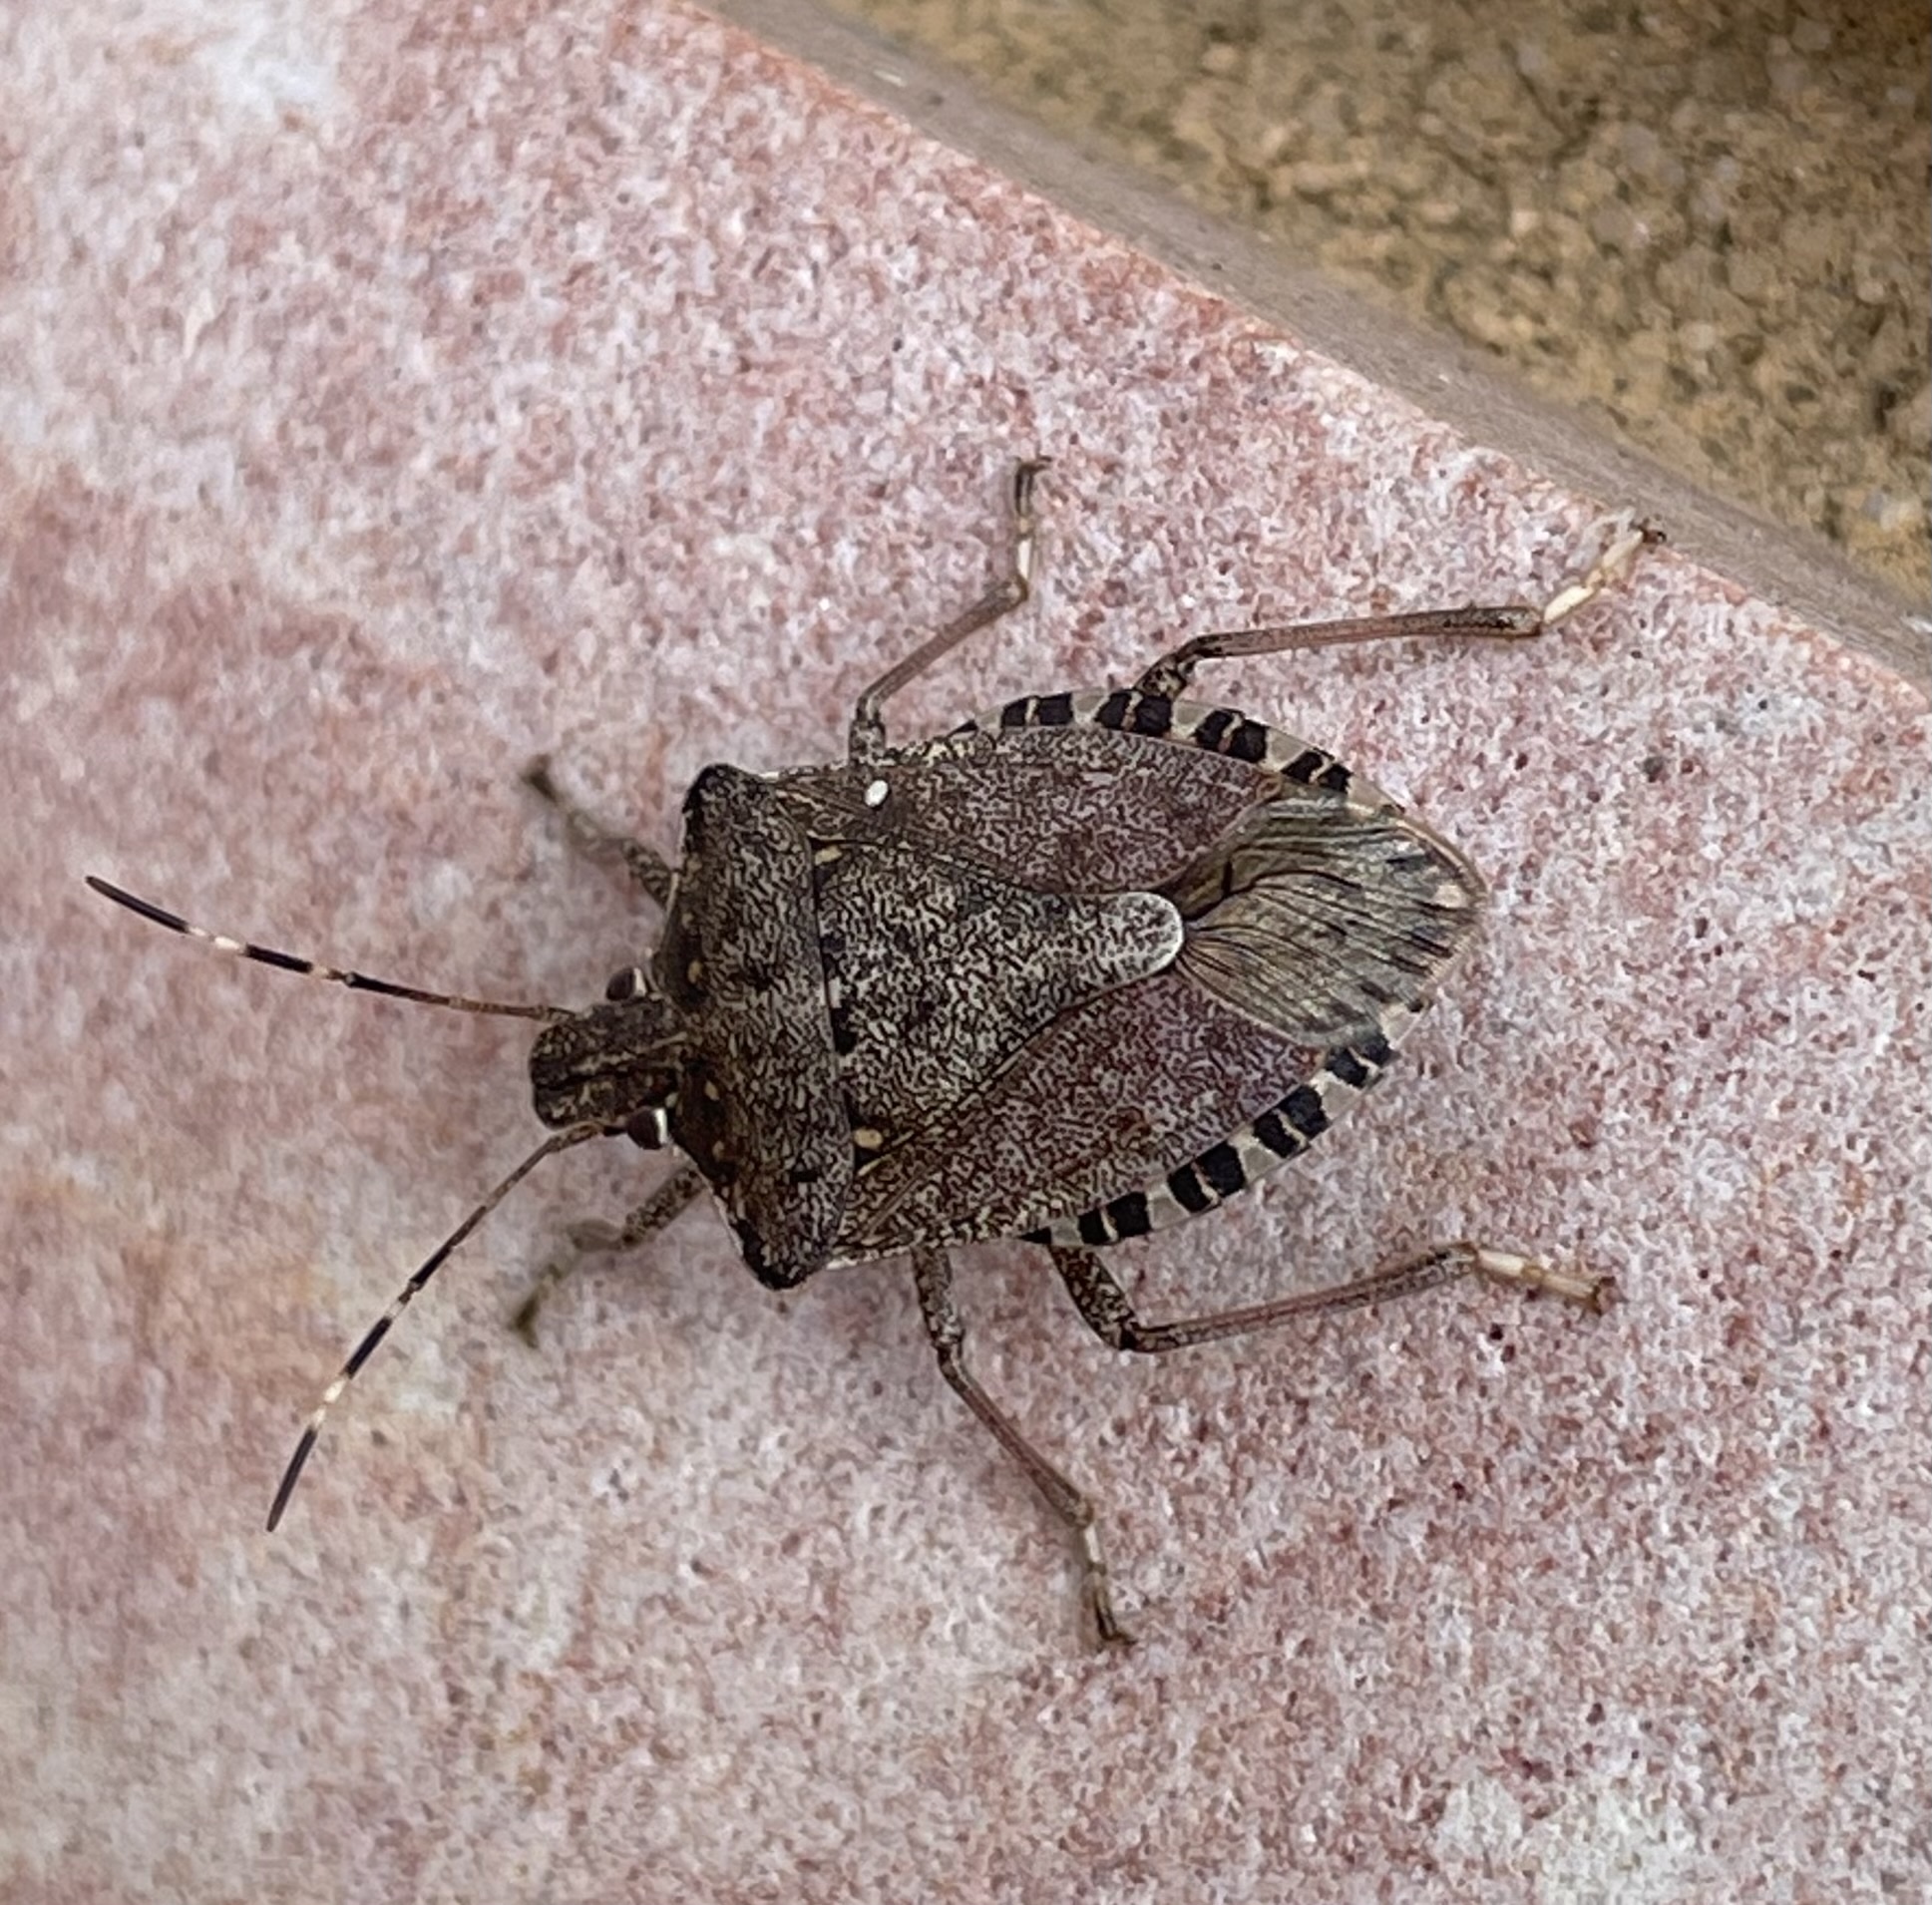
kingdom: Animalia
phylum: Arthropoda
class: Insecta
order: Hemiptera
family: Pentatomidae
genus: Halyomorpha
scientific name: Halyomorpha halys
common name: Brown marmorated stink bug
